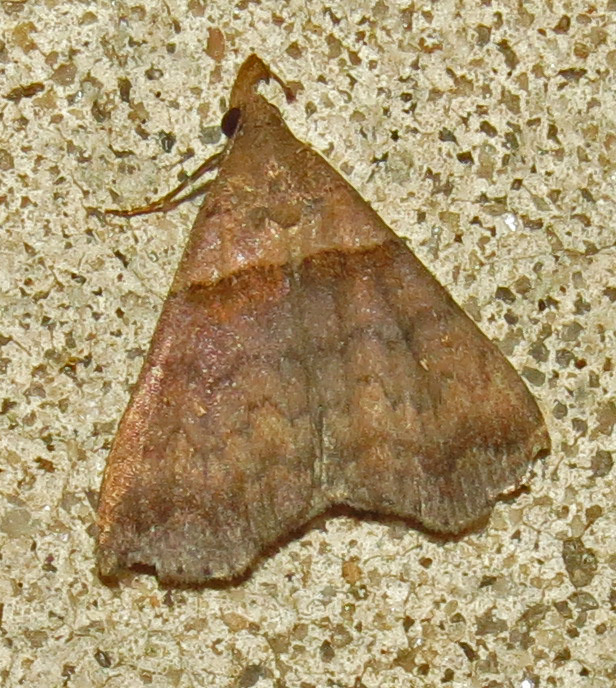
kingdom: Animalia
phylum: Arthropoda
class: Insecta
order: Lepidoptera
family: Erebidae
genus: Lascoria
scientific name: Lascoria ambigualis
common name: Ambiguous moth
